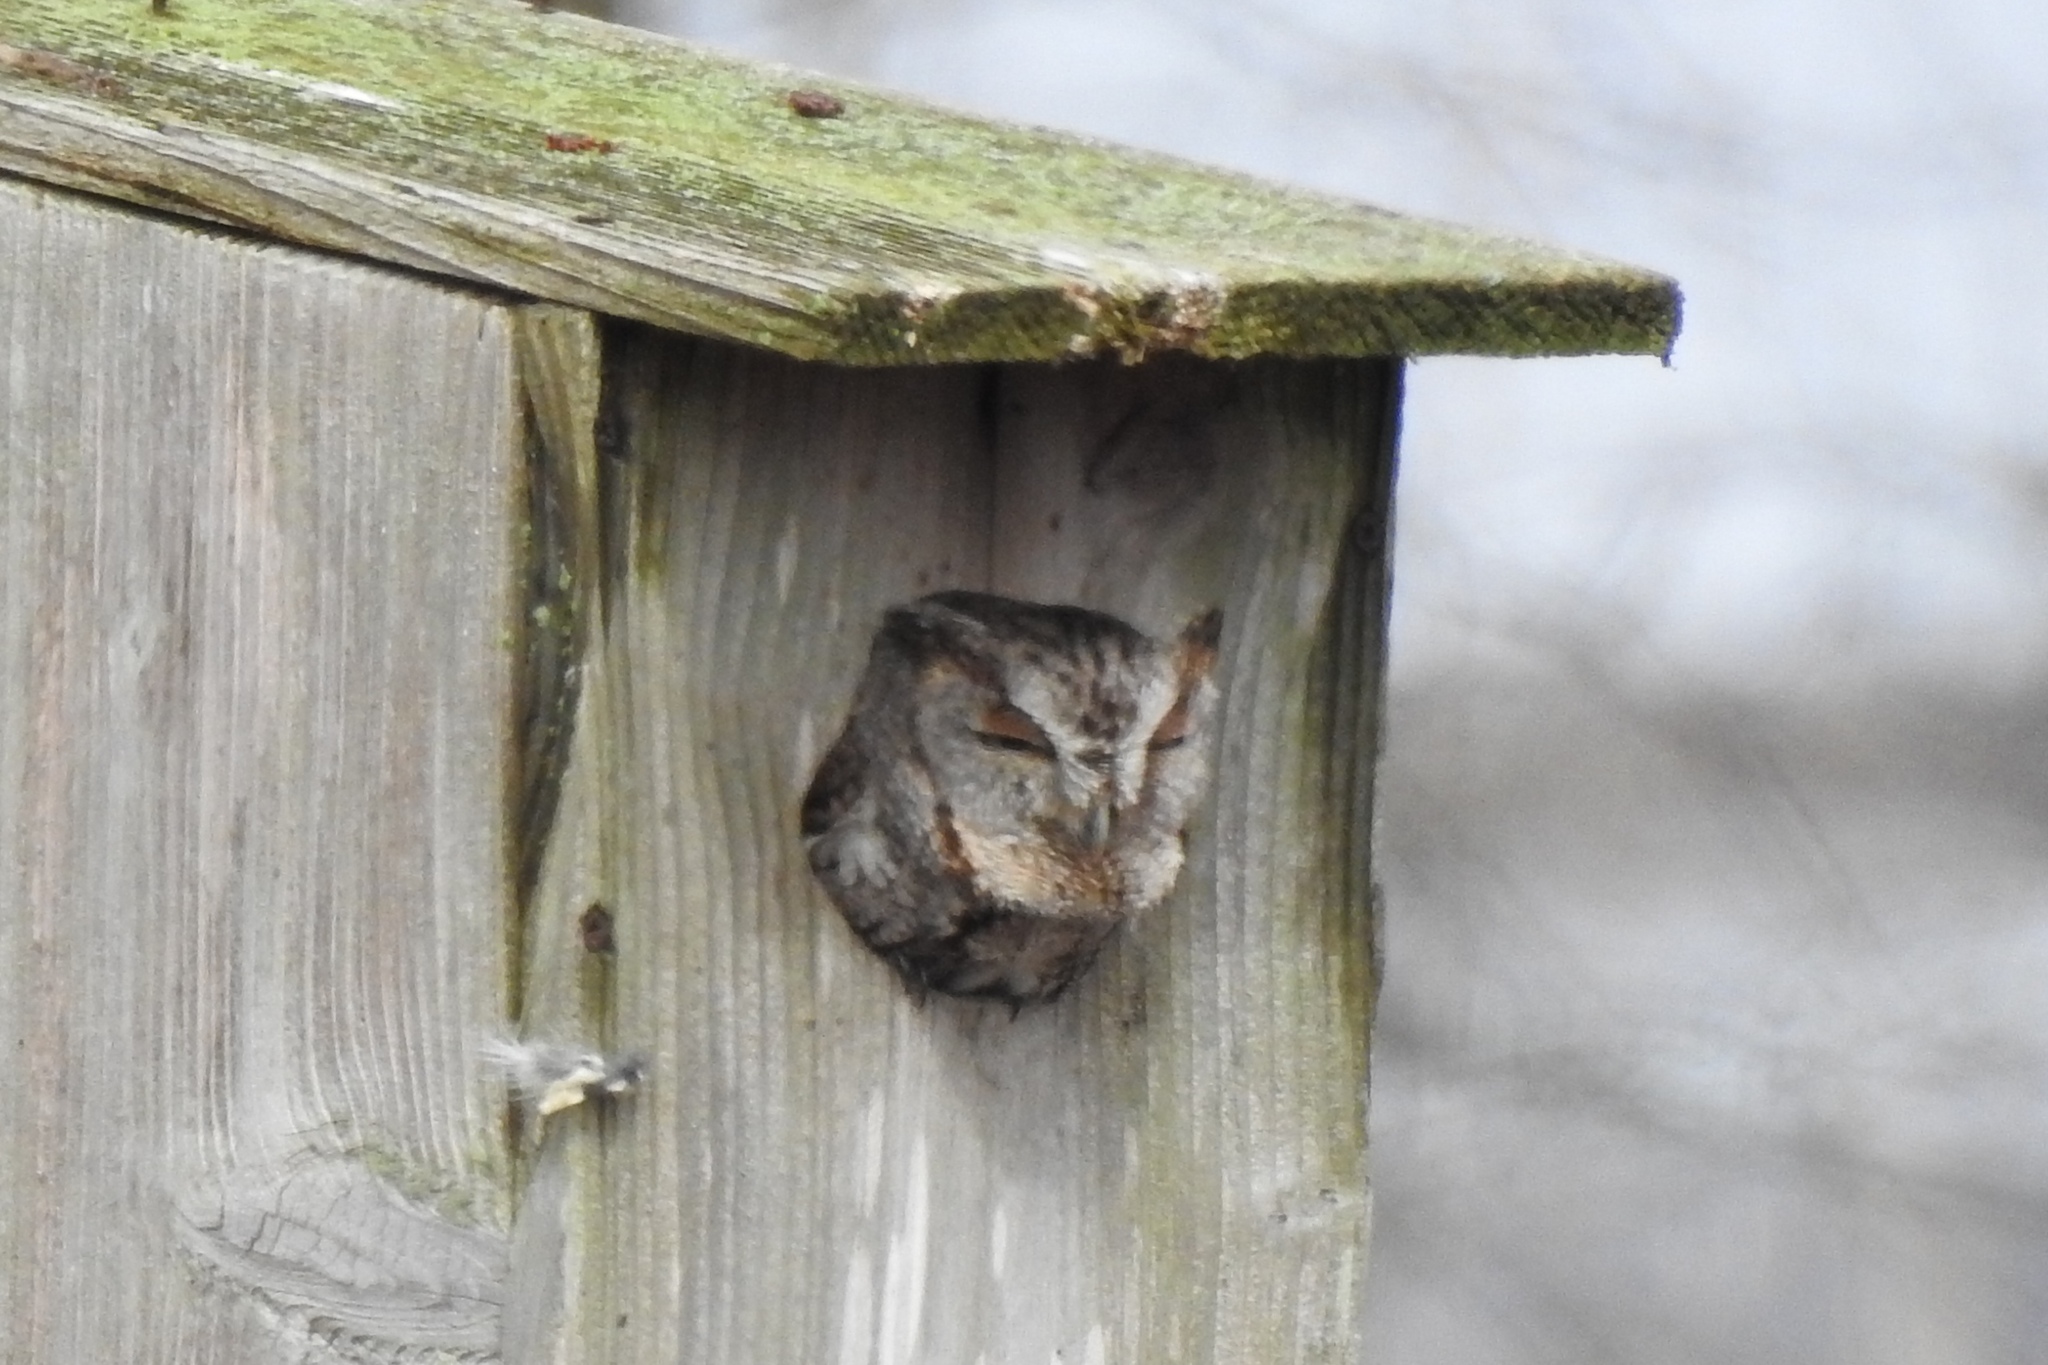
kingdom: Animalia
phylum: Chordata
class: Aves
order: Strigiformes
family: Strigidae
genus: Megascops
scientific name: Megascops asio
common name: Eastern screech-owl
